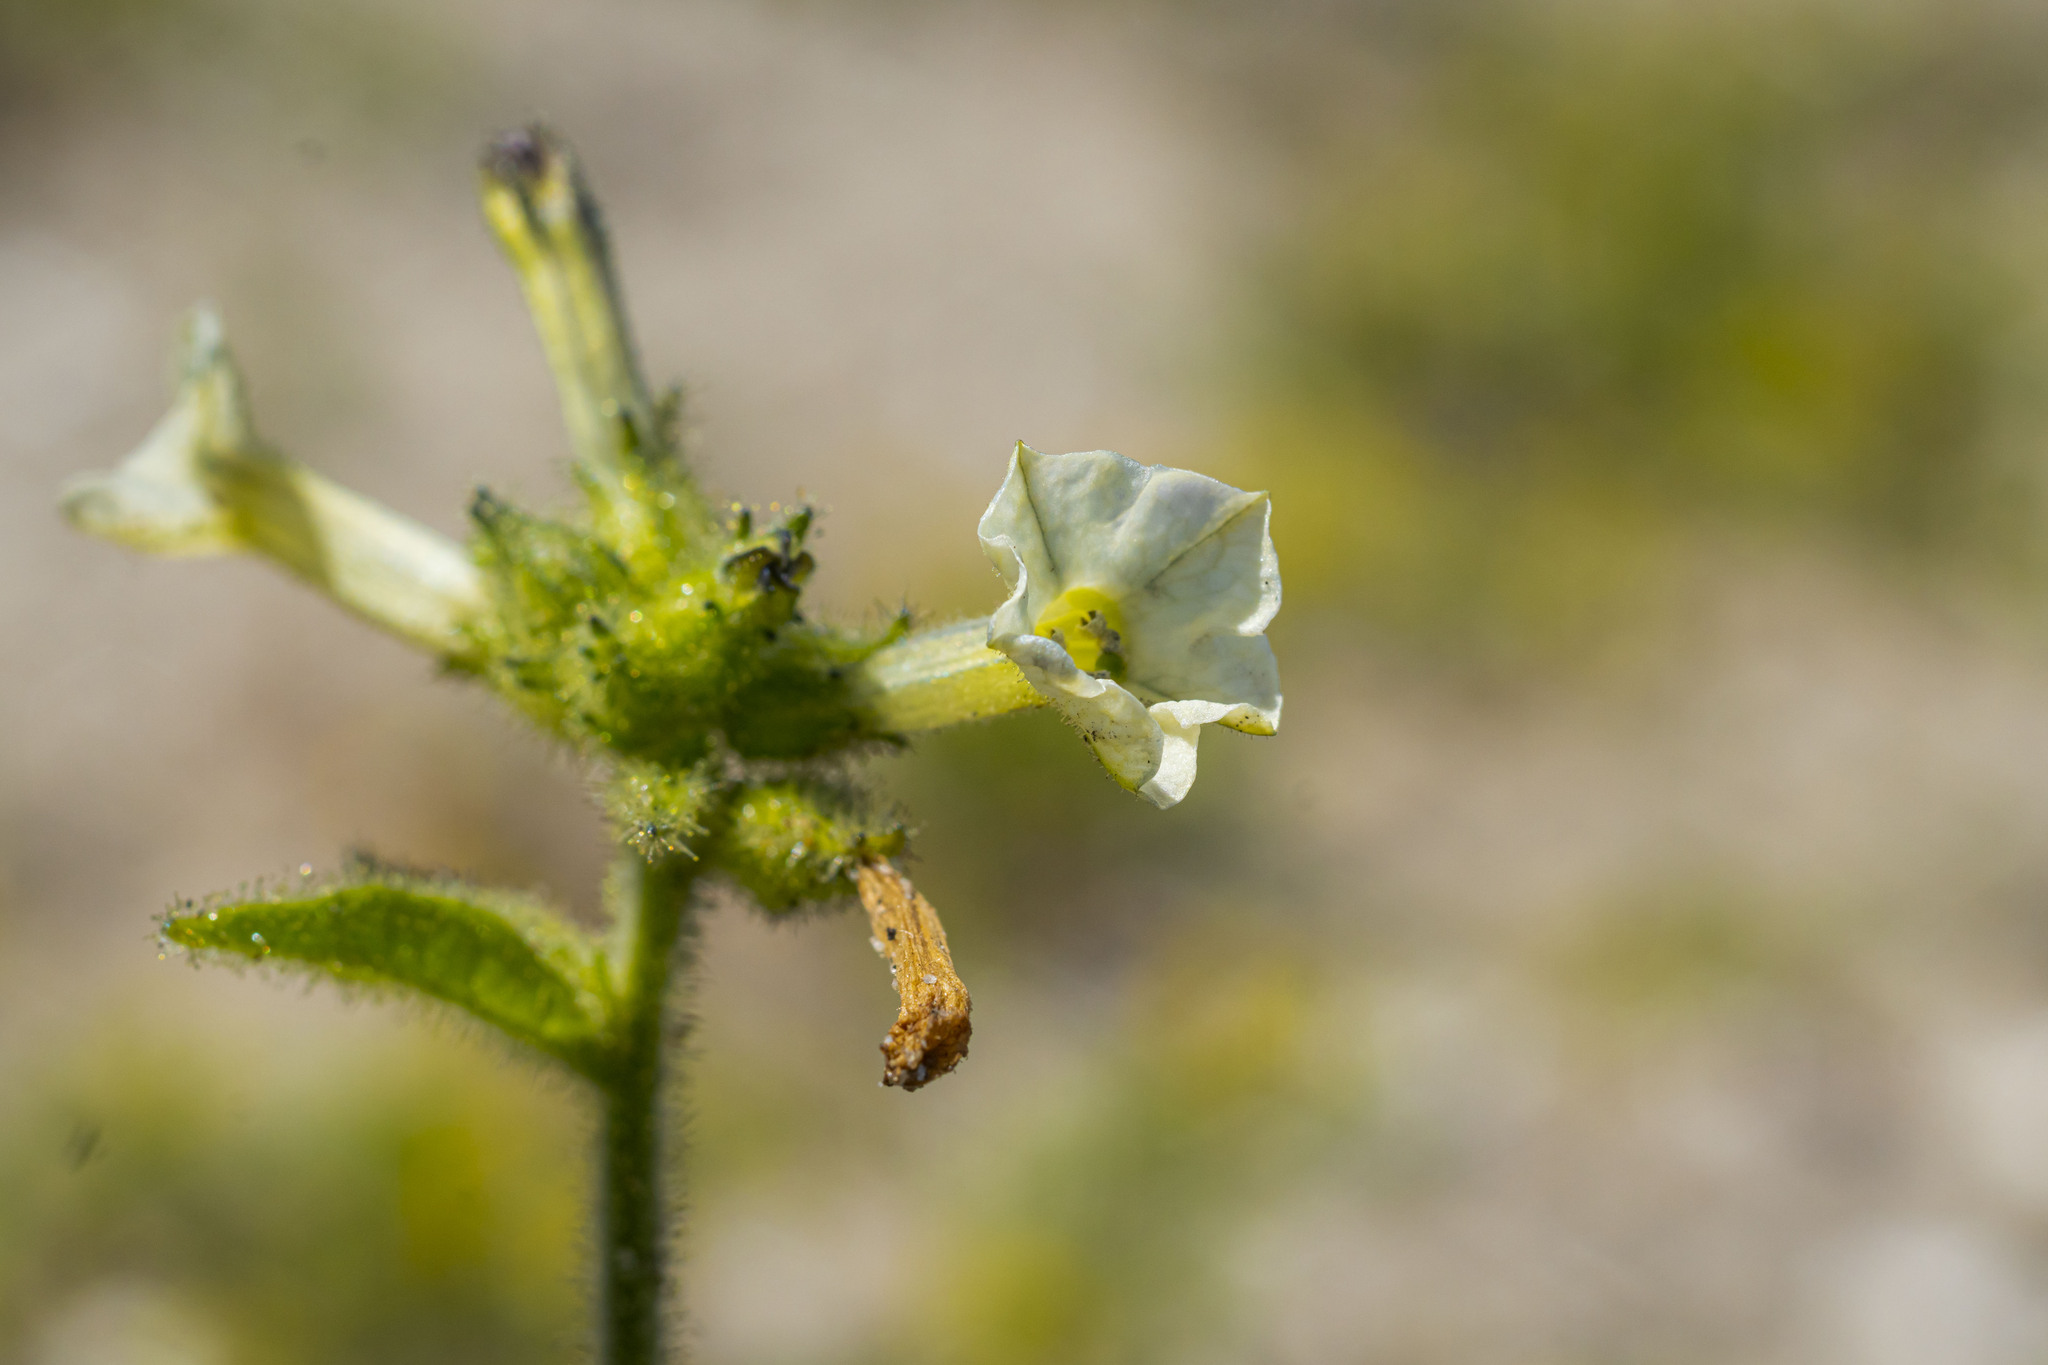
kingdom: Plantae
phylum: Tracheophyta
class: Magnoliopsida
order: Solanales
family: Solanaceae
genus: Nicotiana
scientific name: Nicotiana clevelandii
